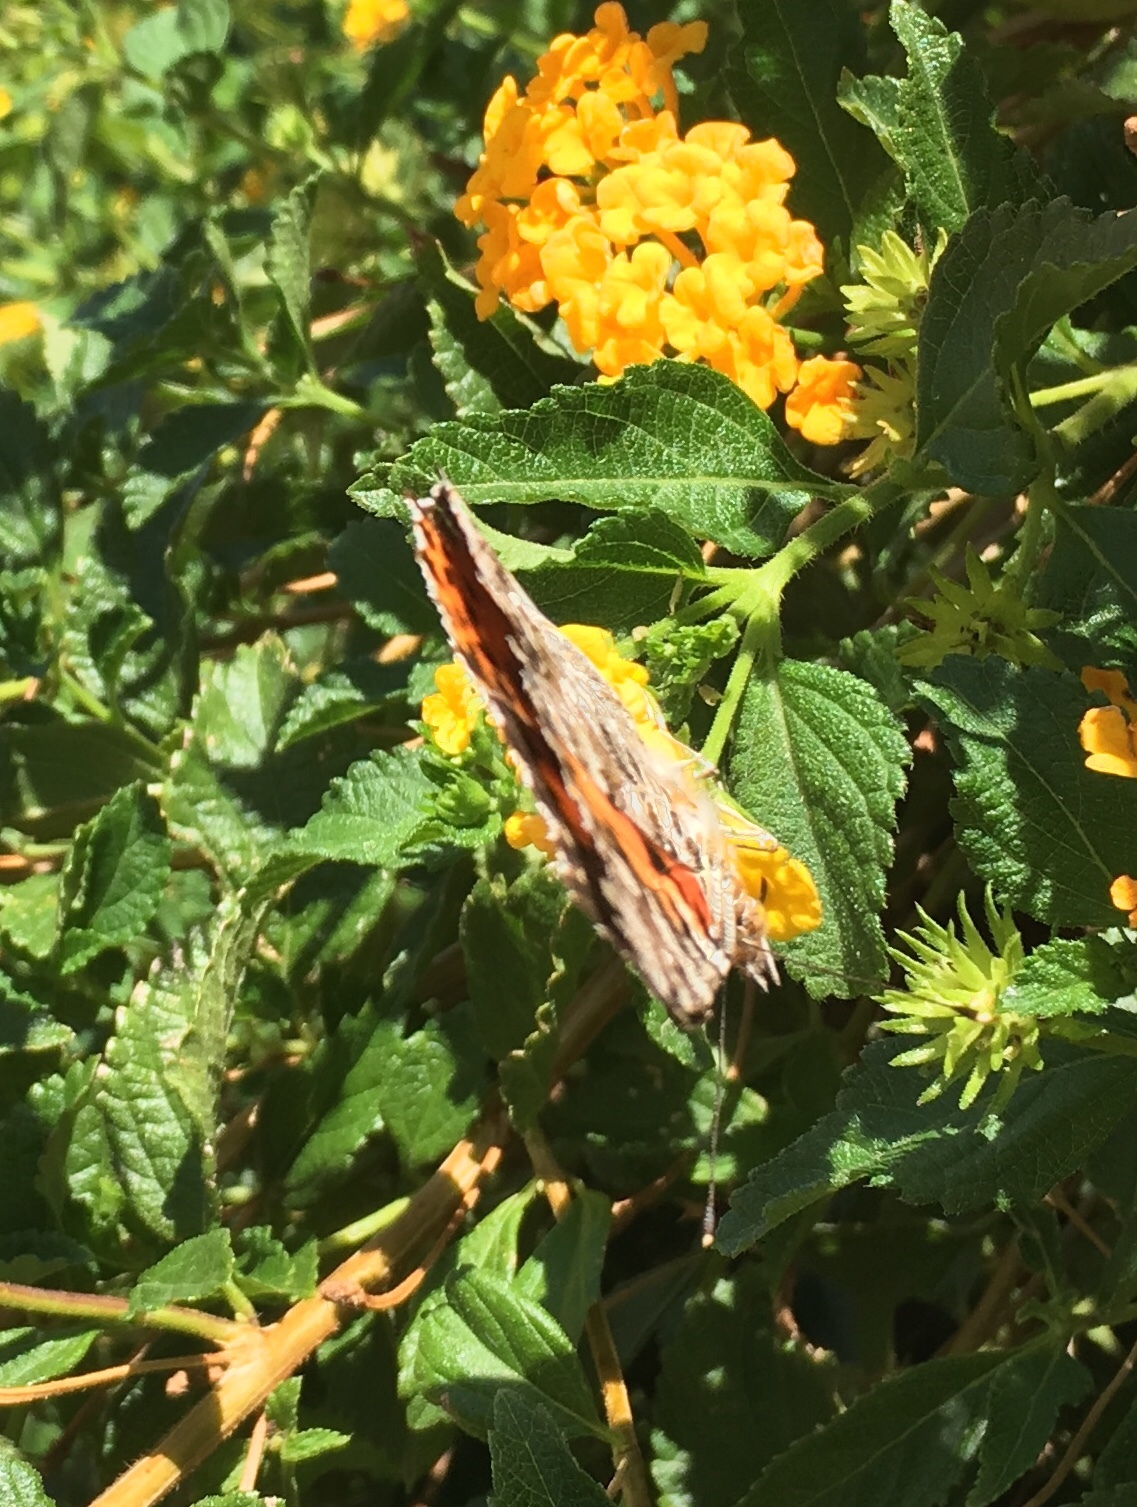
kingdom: Animalia
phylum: Arthropoda
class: Insecta
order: Lepidoptera
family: Nymphalidae
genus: Vanessa
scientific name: Vanessa cardui
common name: Painted lady
